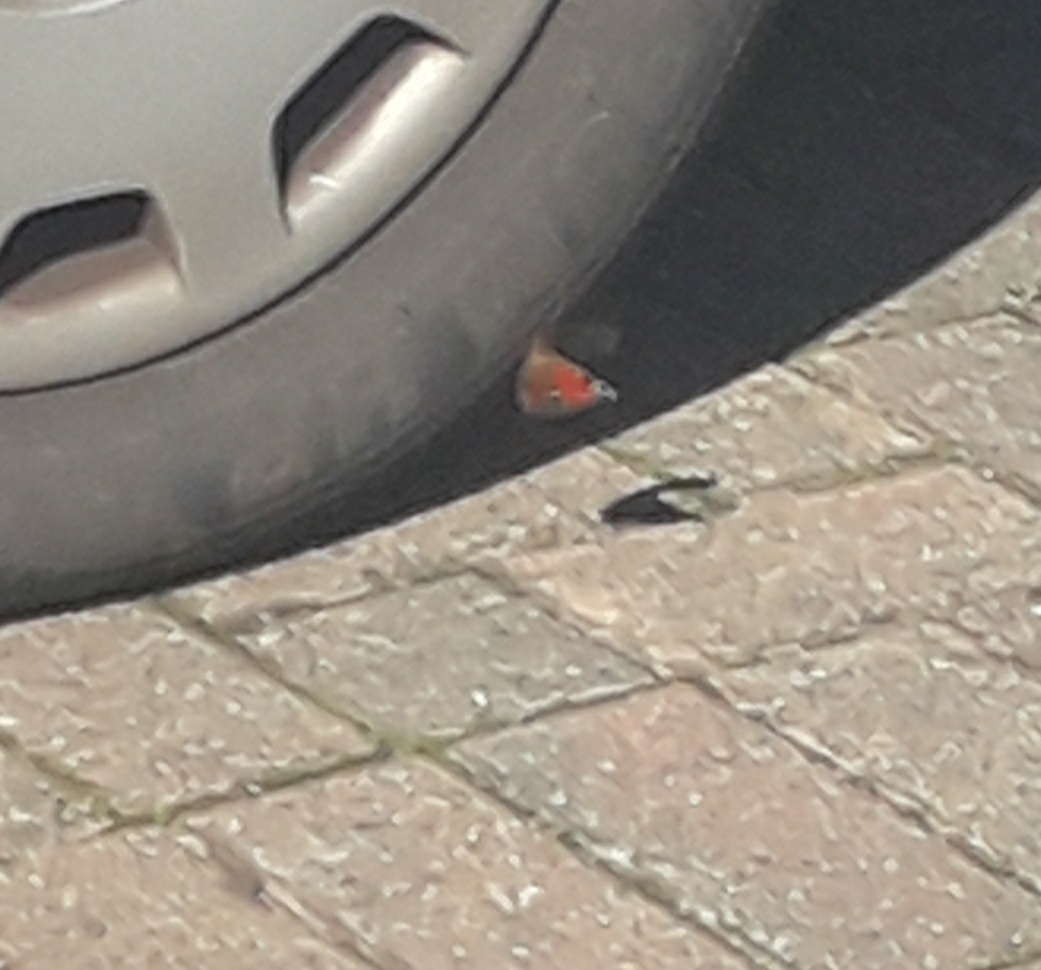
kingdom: Animalia
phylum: Arthropoda
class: Insecta
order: Lepidoptera
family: Nymphalidae
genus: Aglais
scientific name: Aglais io
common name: Peacock
